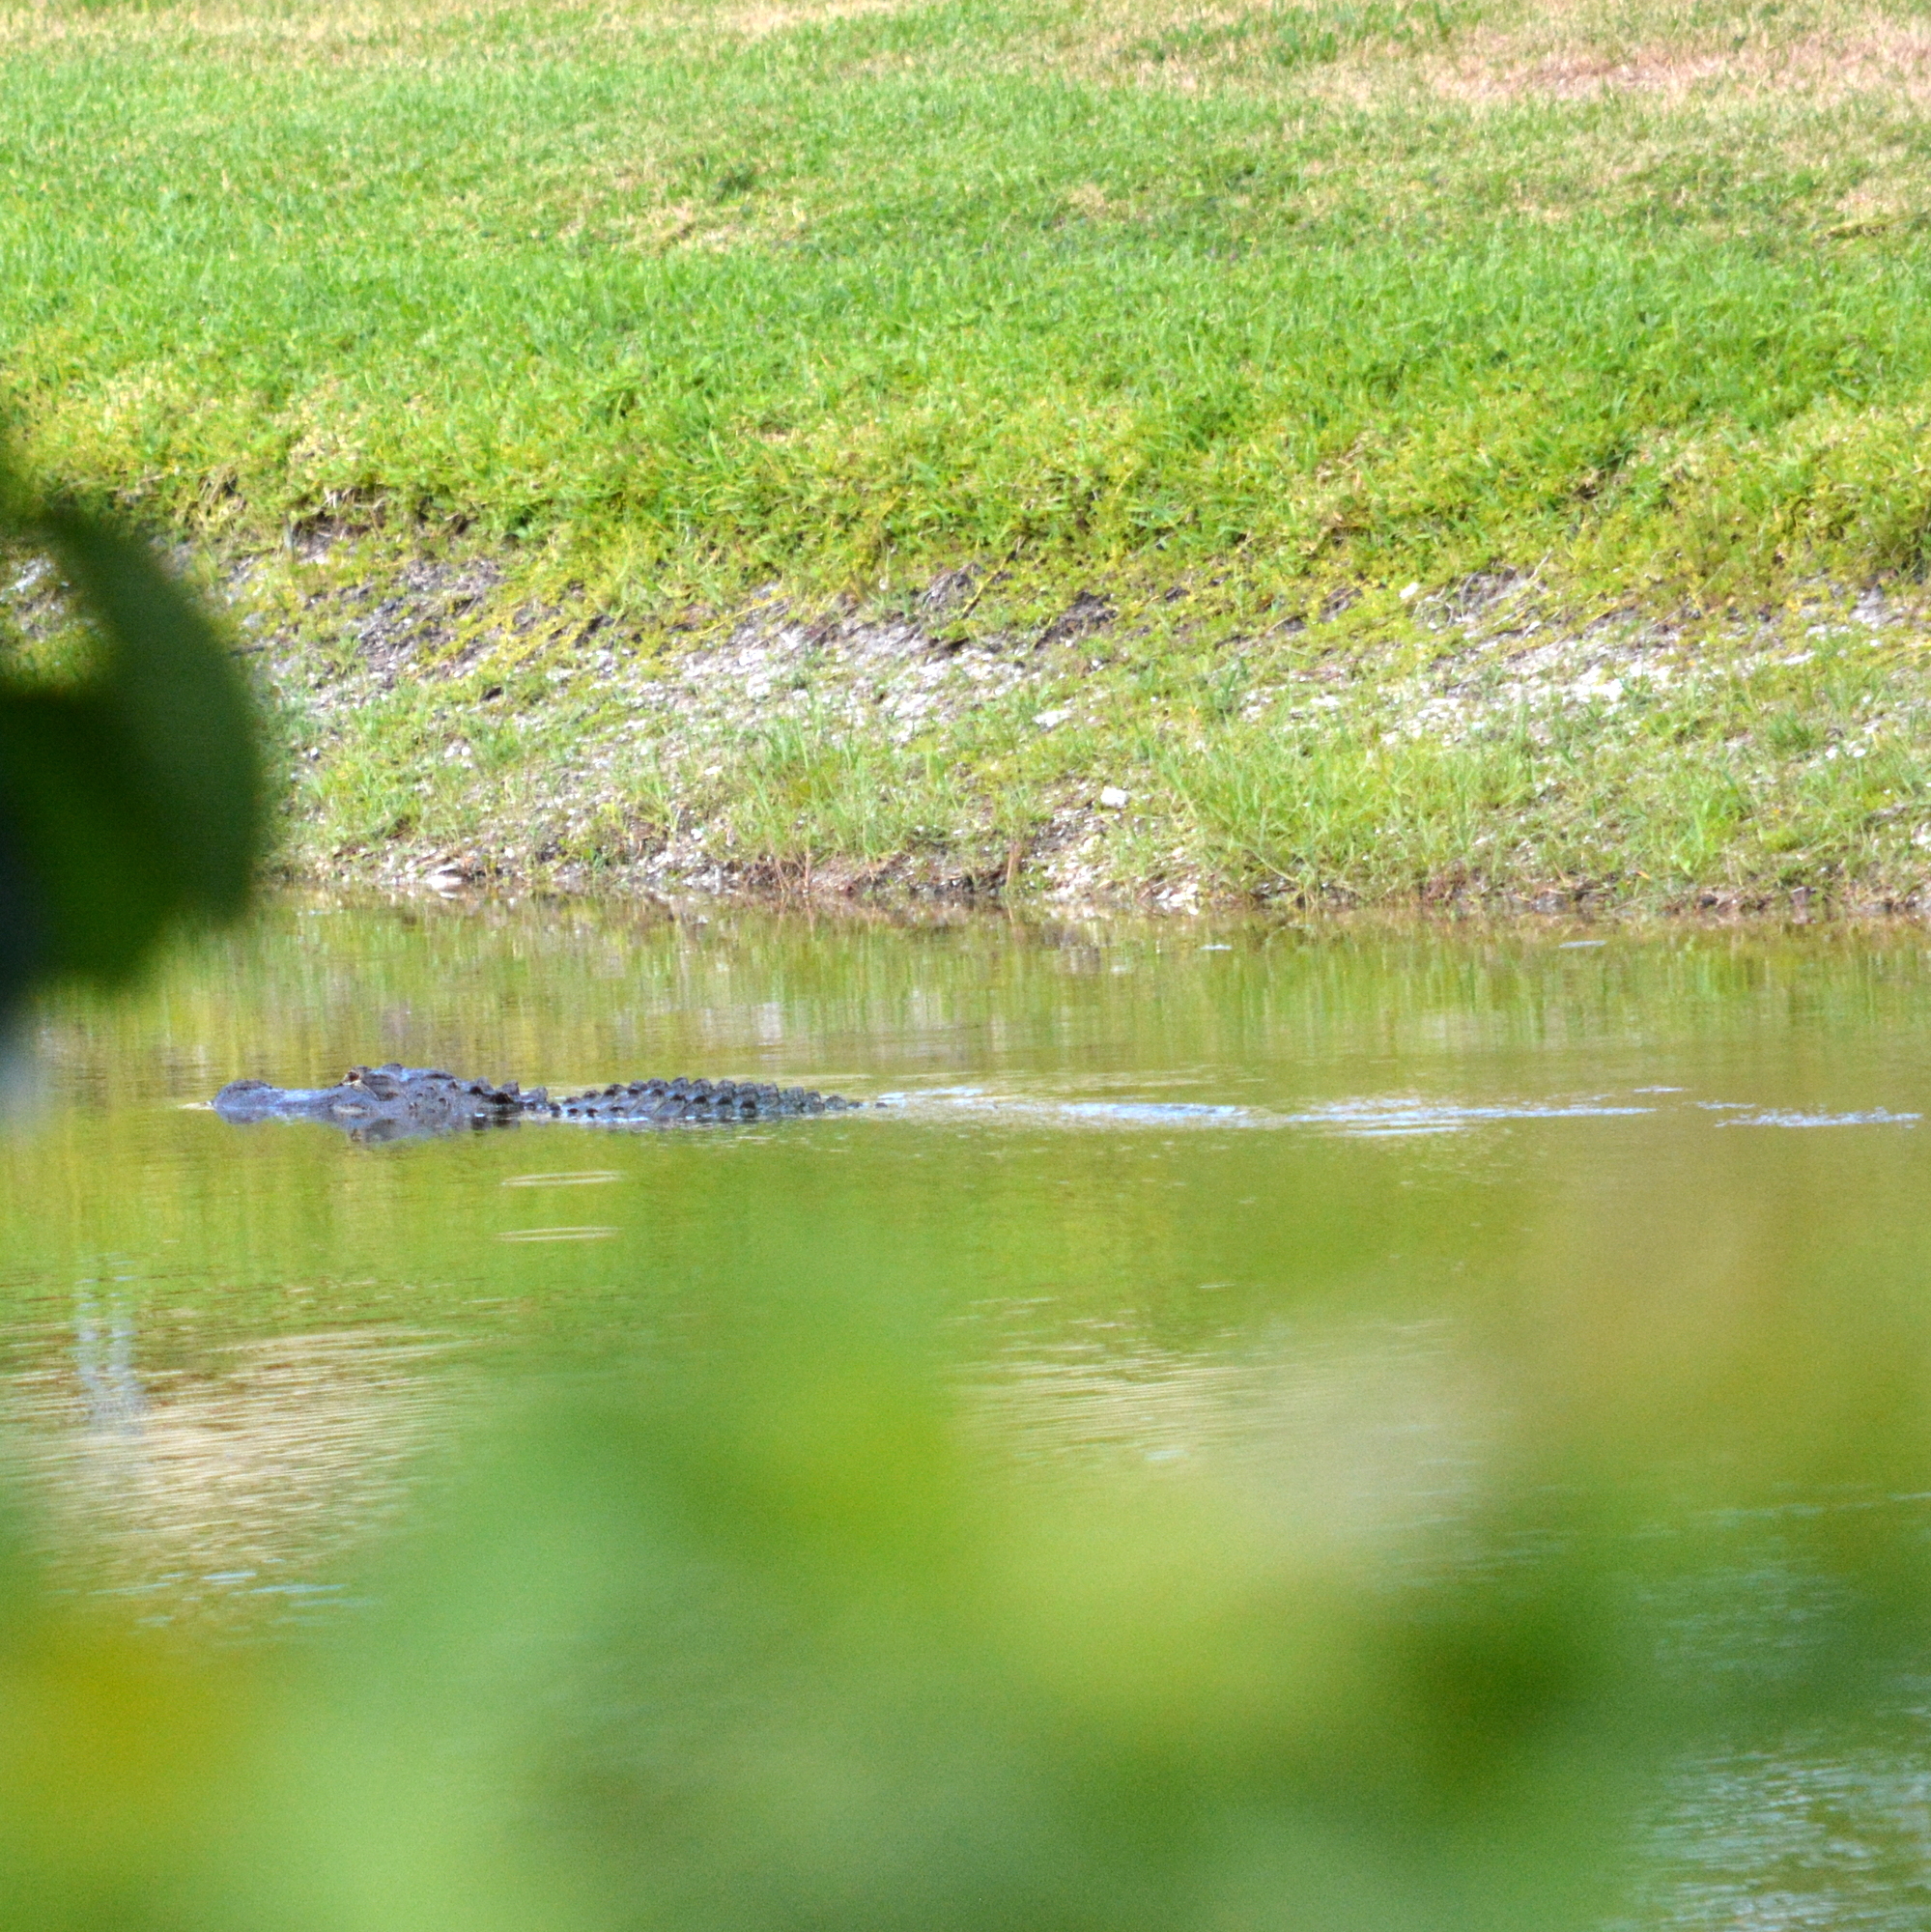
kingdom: Animalia
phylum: Chordata
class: Crocodylia
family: Alligatoridae
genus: Alligator
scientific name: Alligator mississippiensis
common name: American alligator
